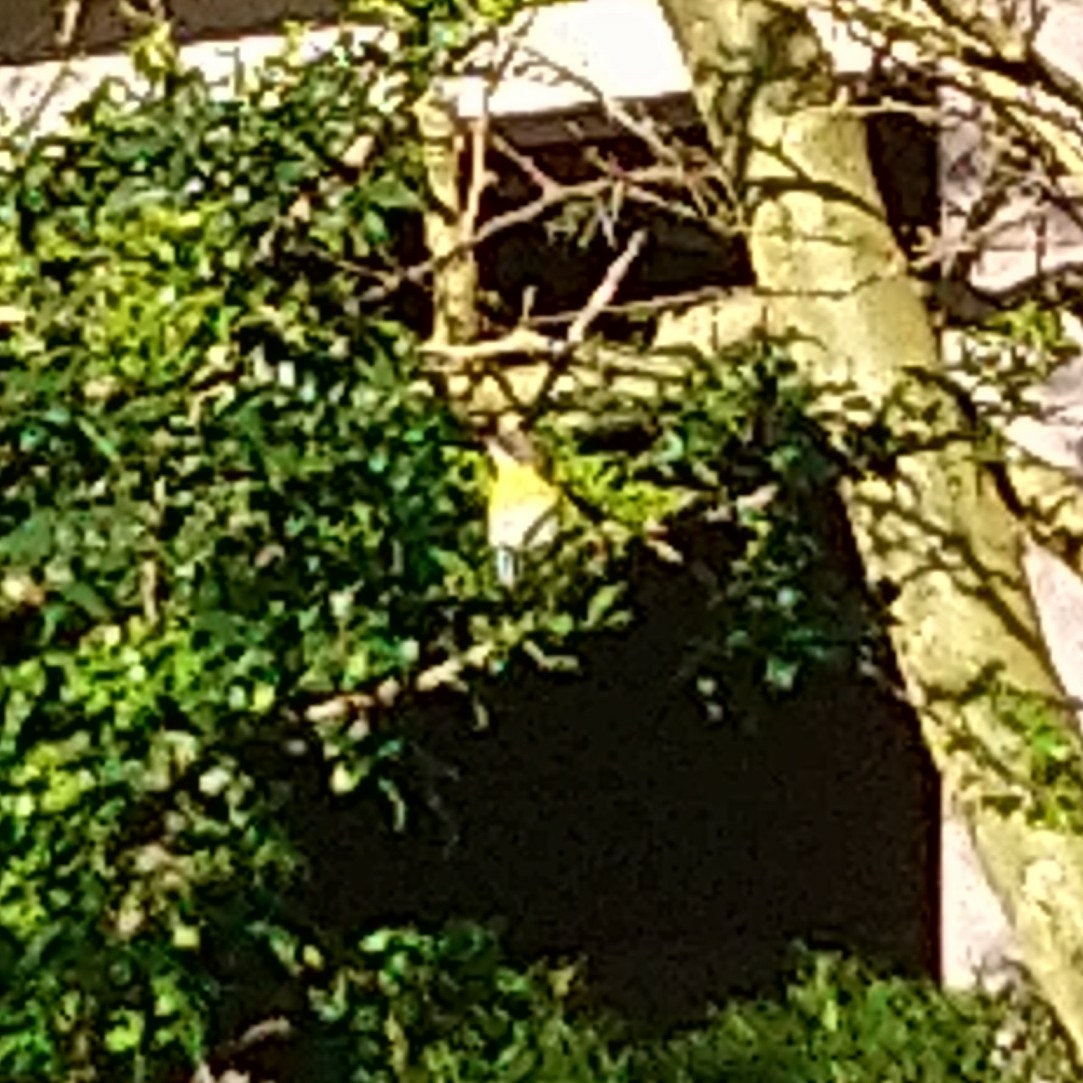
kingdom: Animalia
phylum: Chordata
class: Aves
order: Passeriformes
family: Cisticolidae
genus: Apalis
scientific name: Apalis flavida
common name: Yellow-breasted apalis
